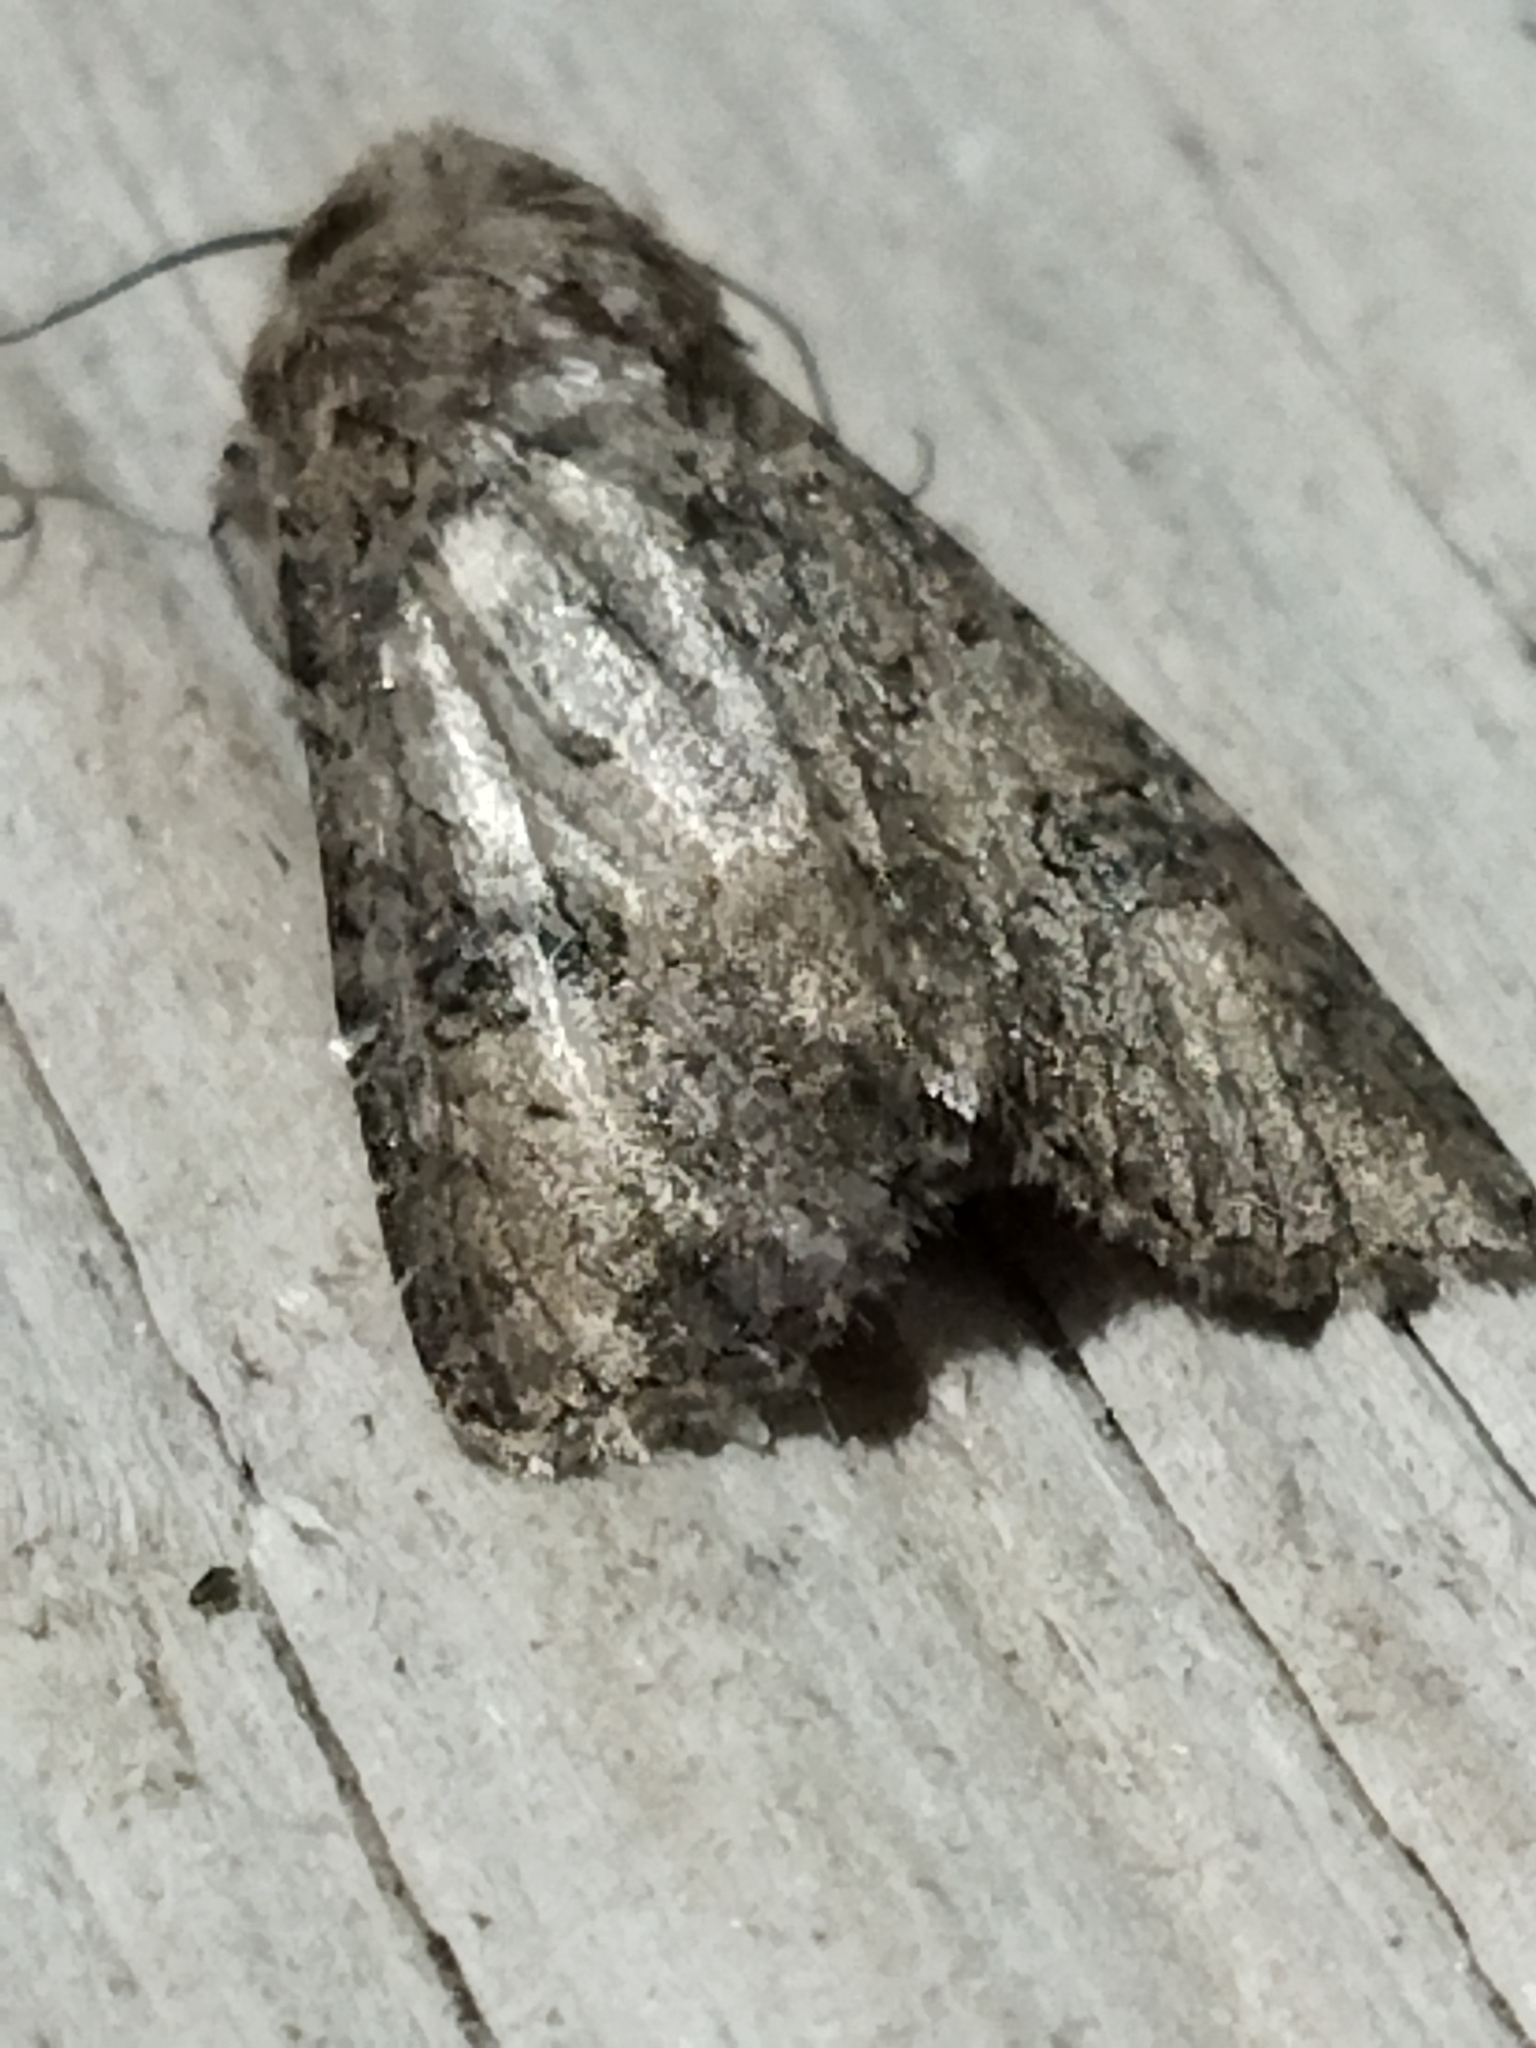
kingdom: Animalia
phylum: Arthropoda
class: Insecta
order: Lepidoptera
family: Noctuidae
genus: Anarta
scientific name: Anarta trifolii
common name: Clover cutworm moth
